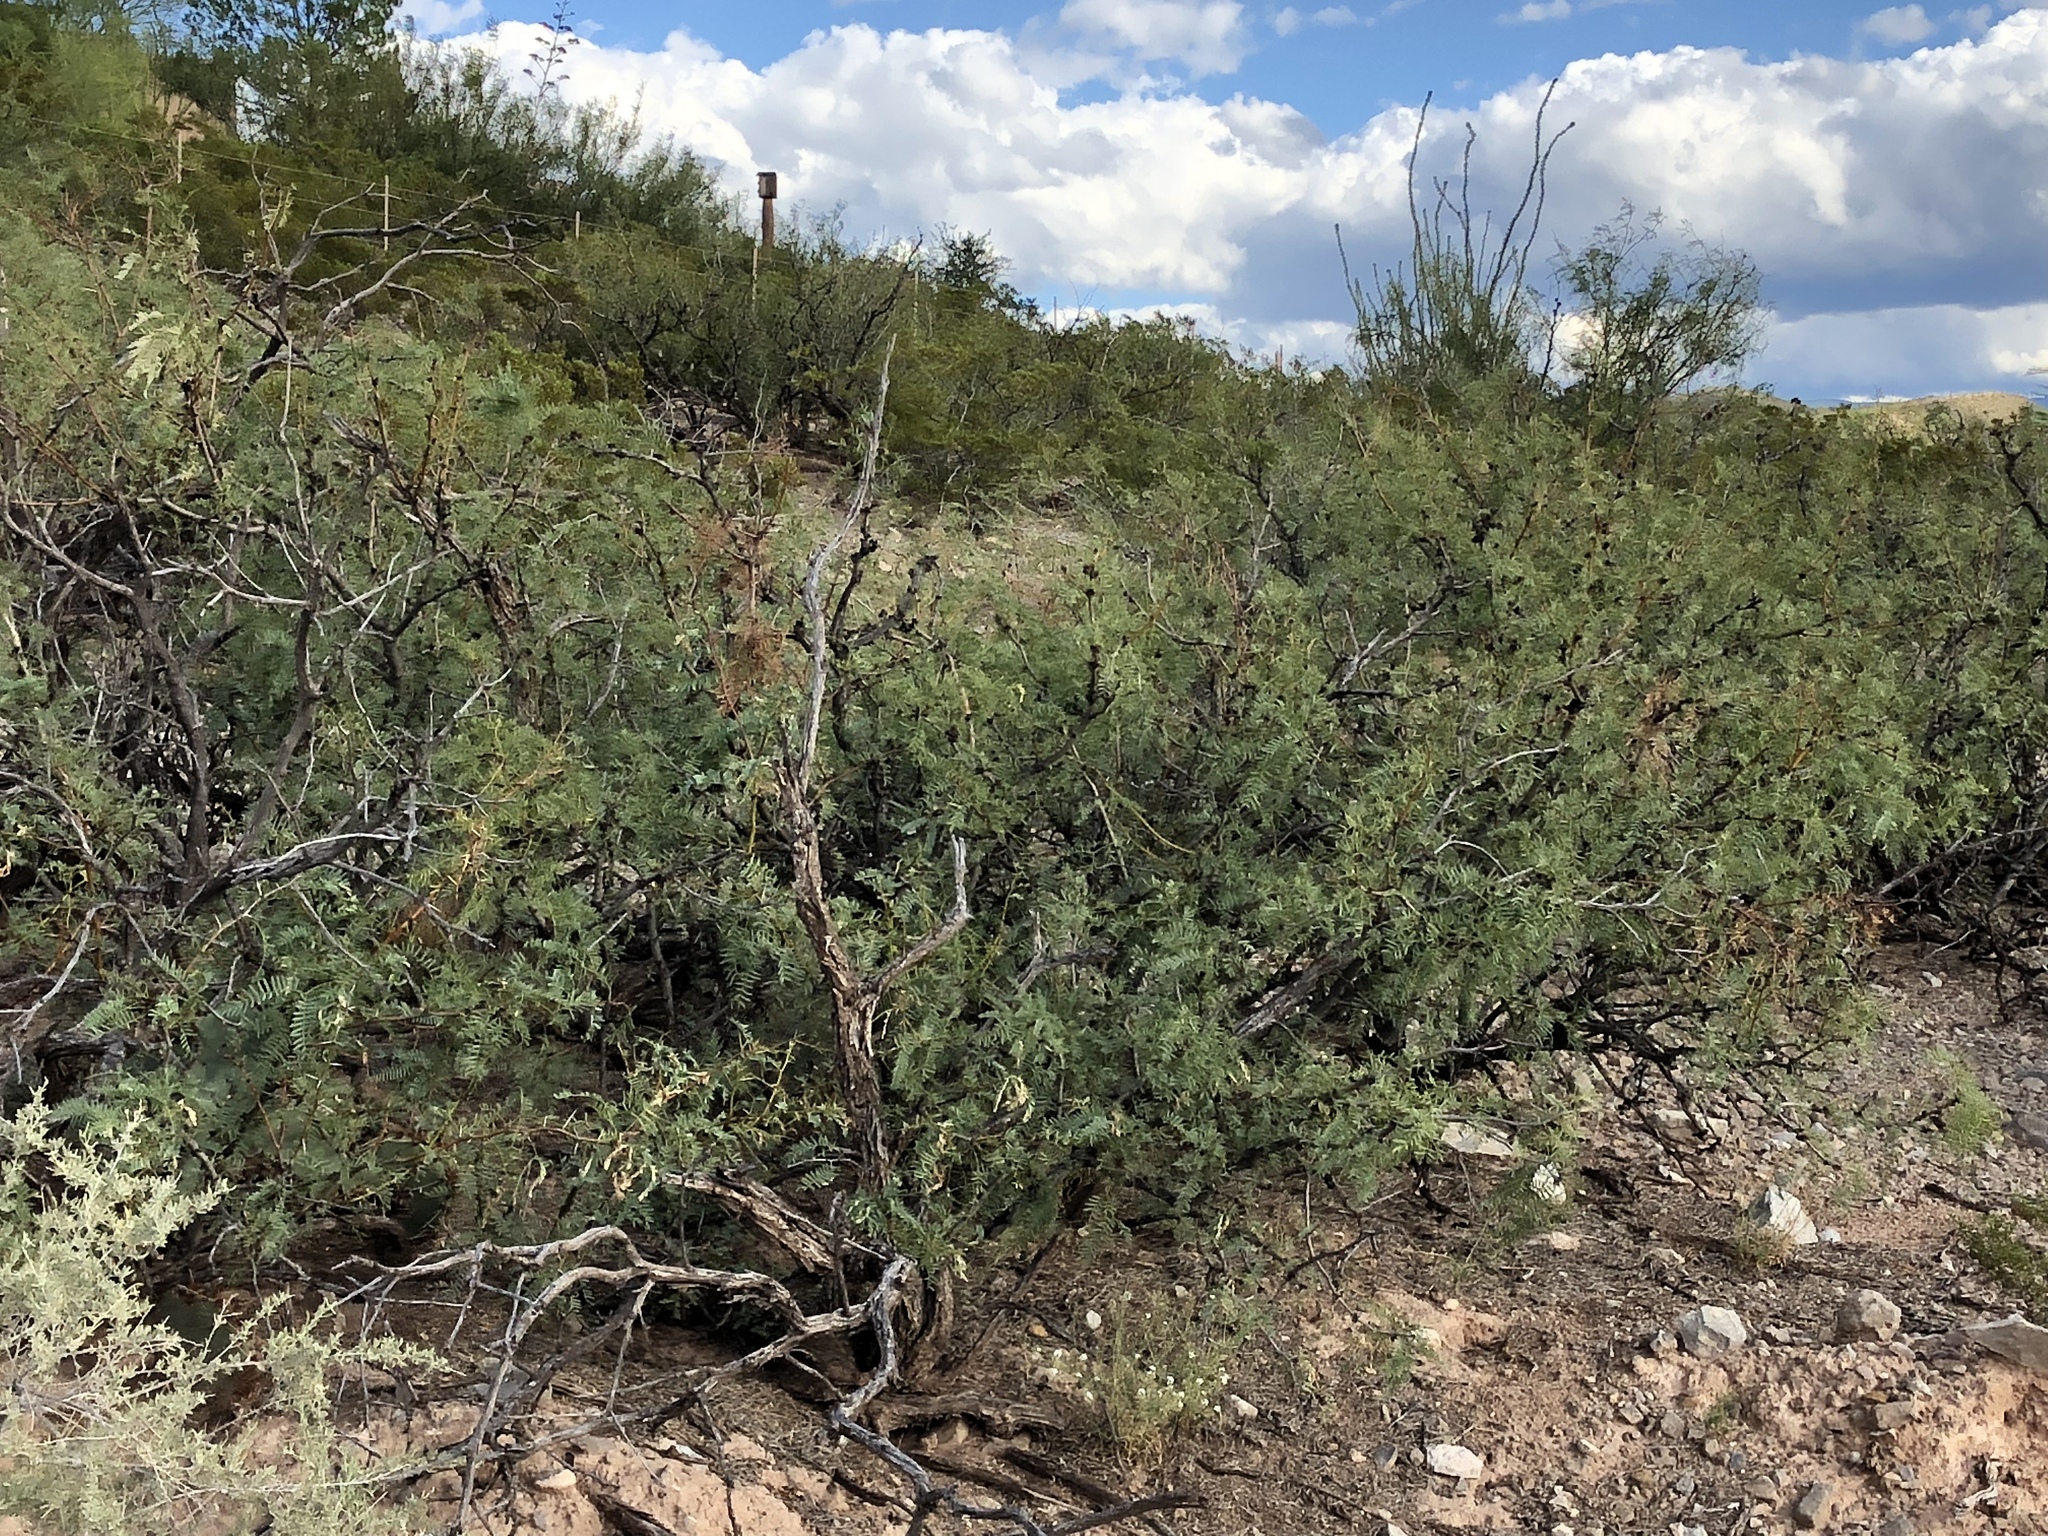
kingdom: Plantae
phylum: Tracheophyta
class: Magnoliopsida
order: Fabales
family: Fabaceae
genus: Prosopis
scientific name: Prosopis glandulosa
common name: Honey mesquite
